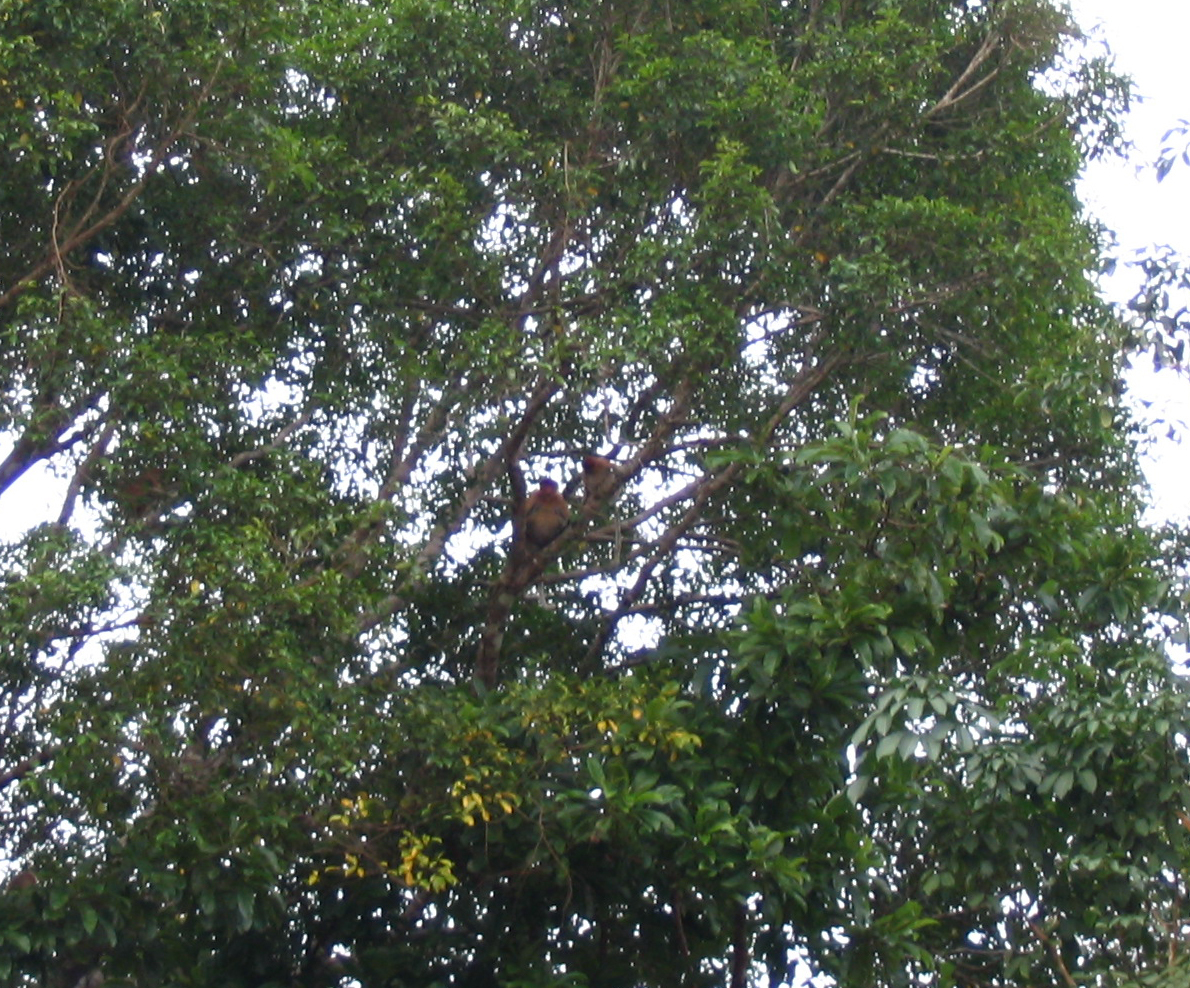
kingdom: Animalia
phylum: Chordata
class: Mammalia
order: Primates
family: Cercopithecidae
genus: Nasalis
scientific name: Nasalis larvatus
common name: Proboscis monkey
